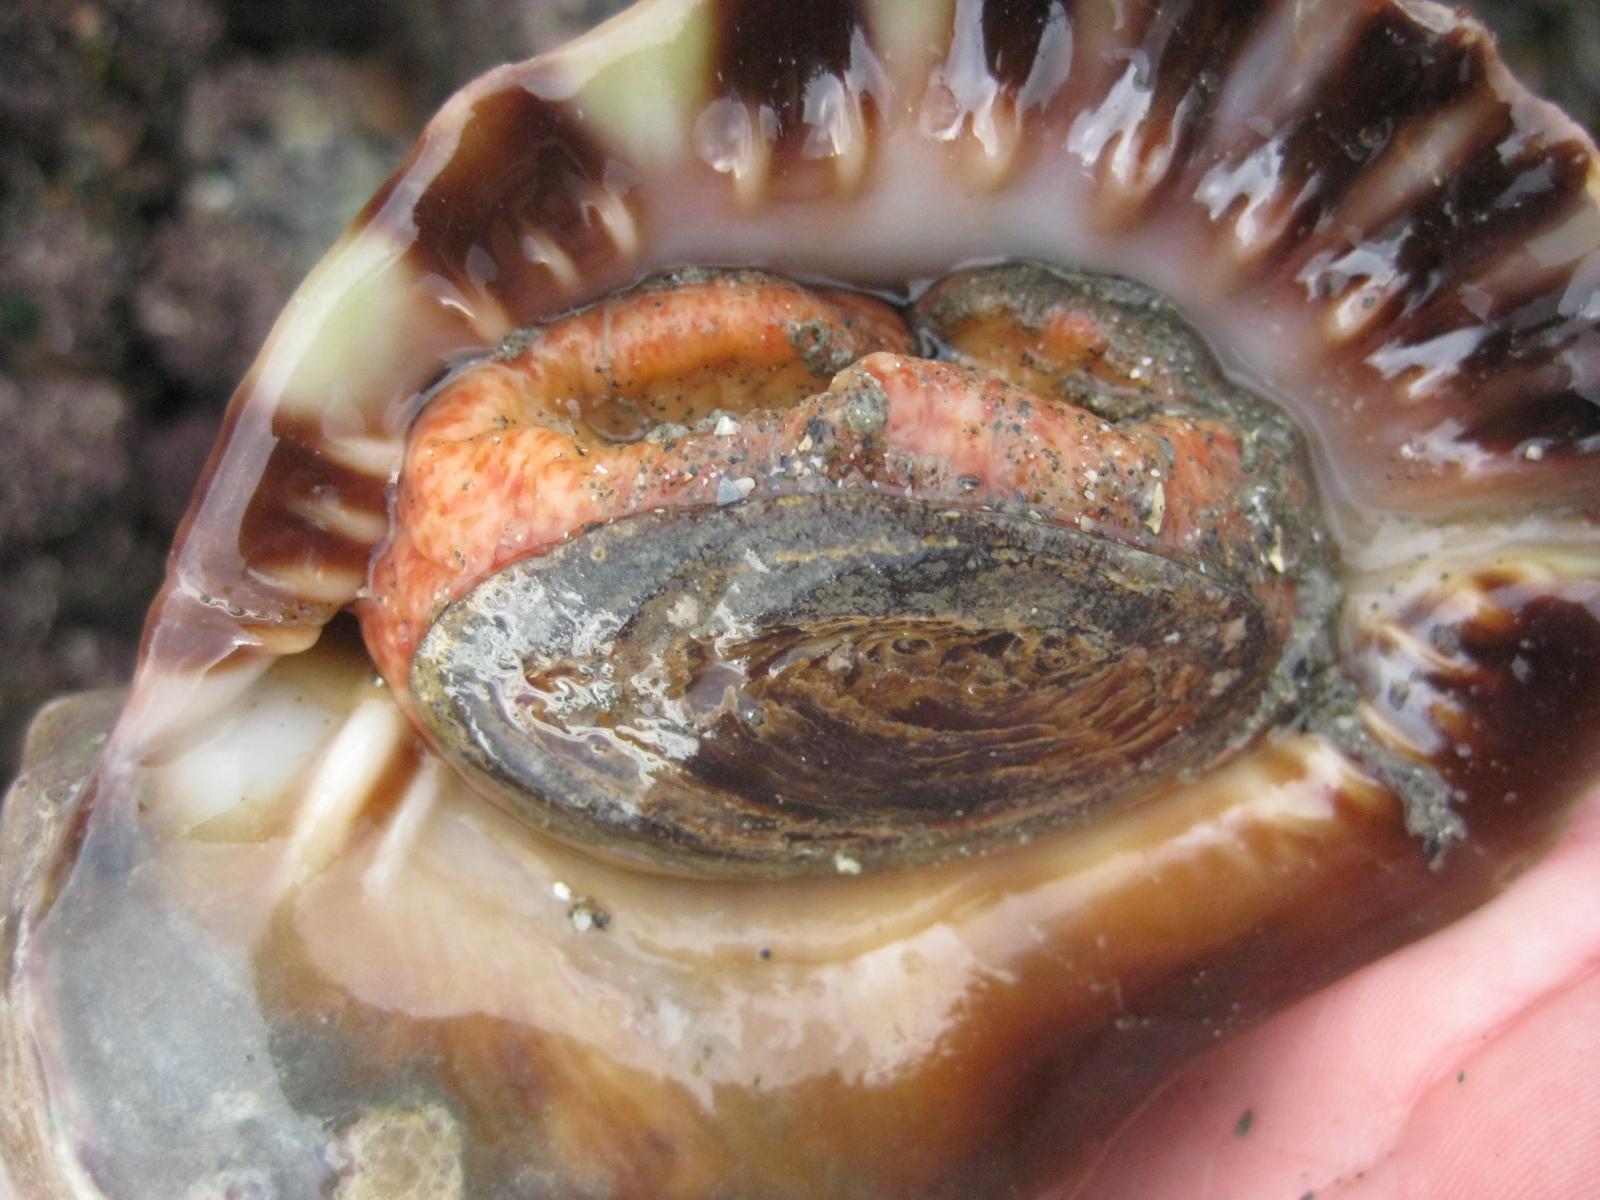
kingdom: Animalia
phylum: Mollusca
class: Gastropoda
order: Littorinimorpha
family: Charoniidae
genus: Charonia
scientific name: Charonia lampas
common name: Knobbed triton
